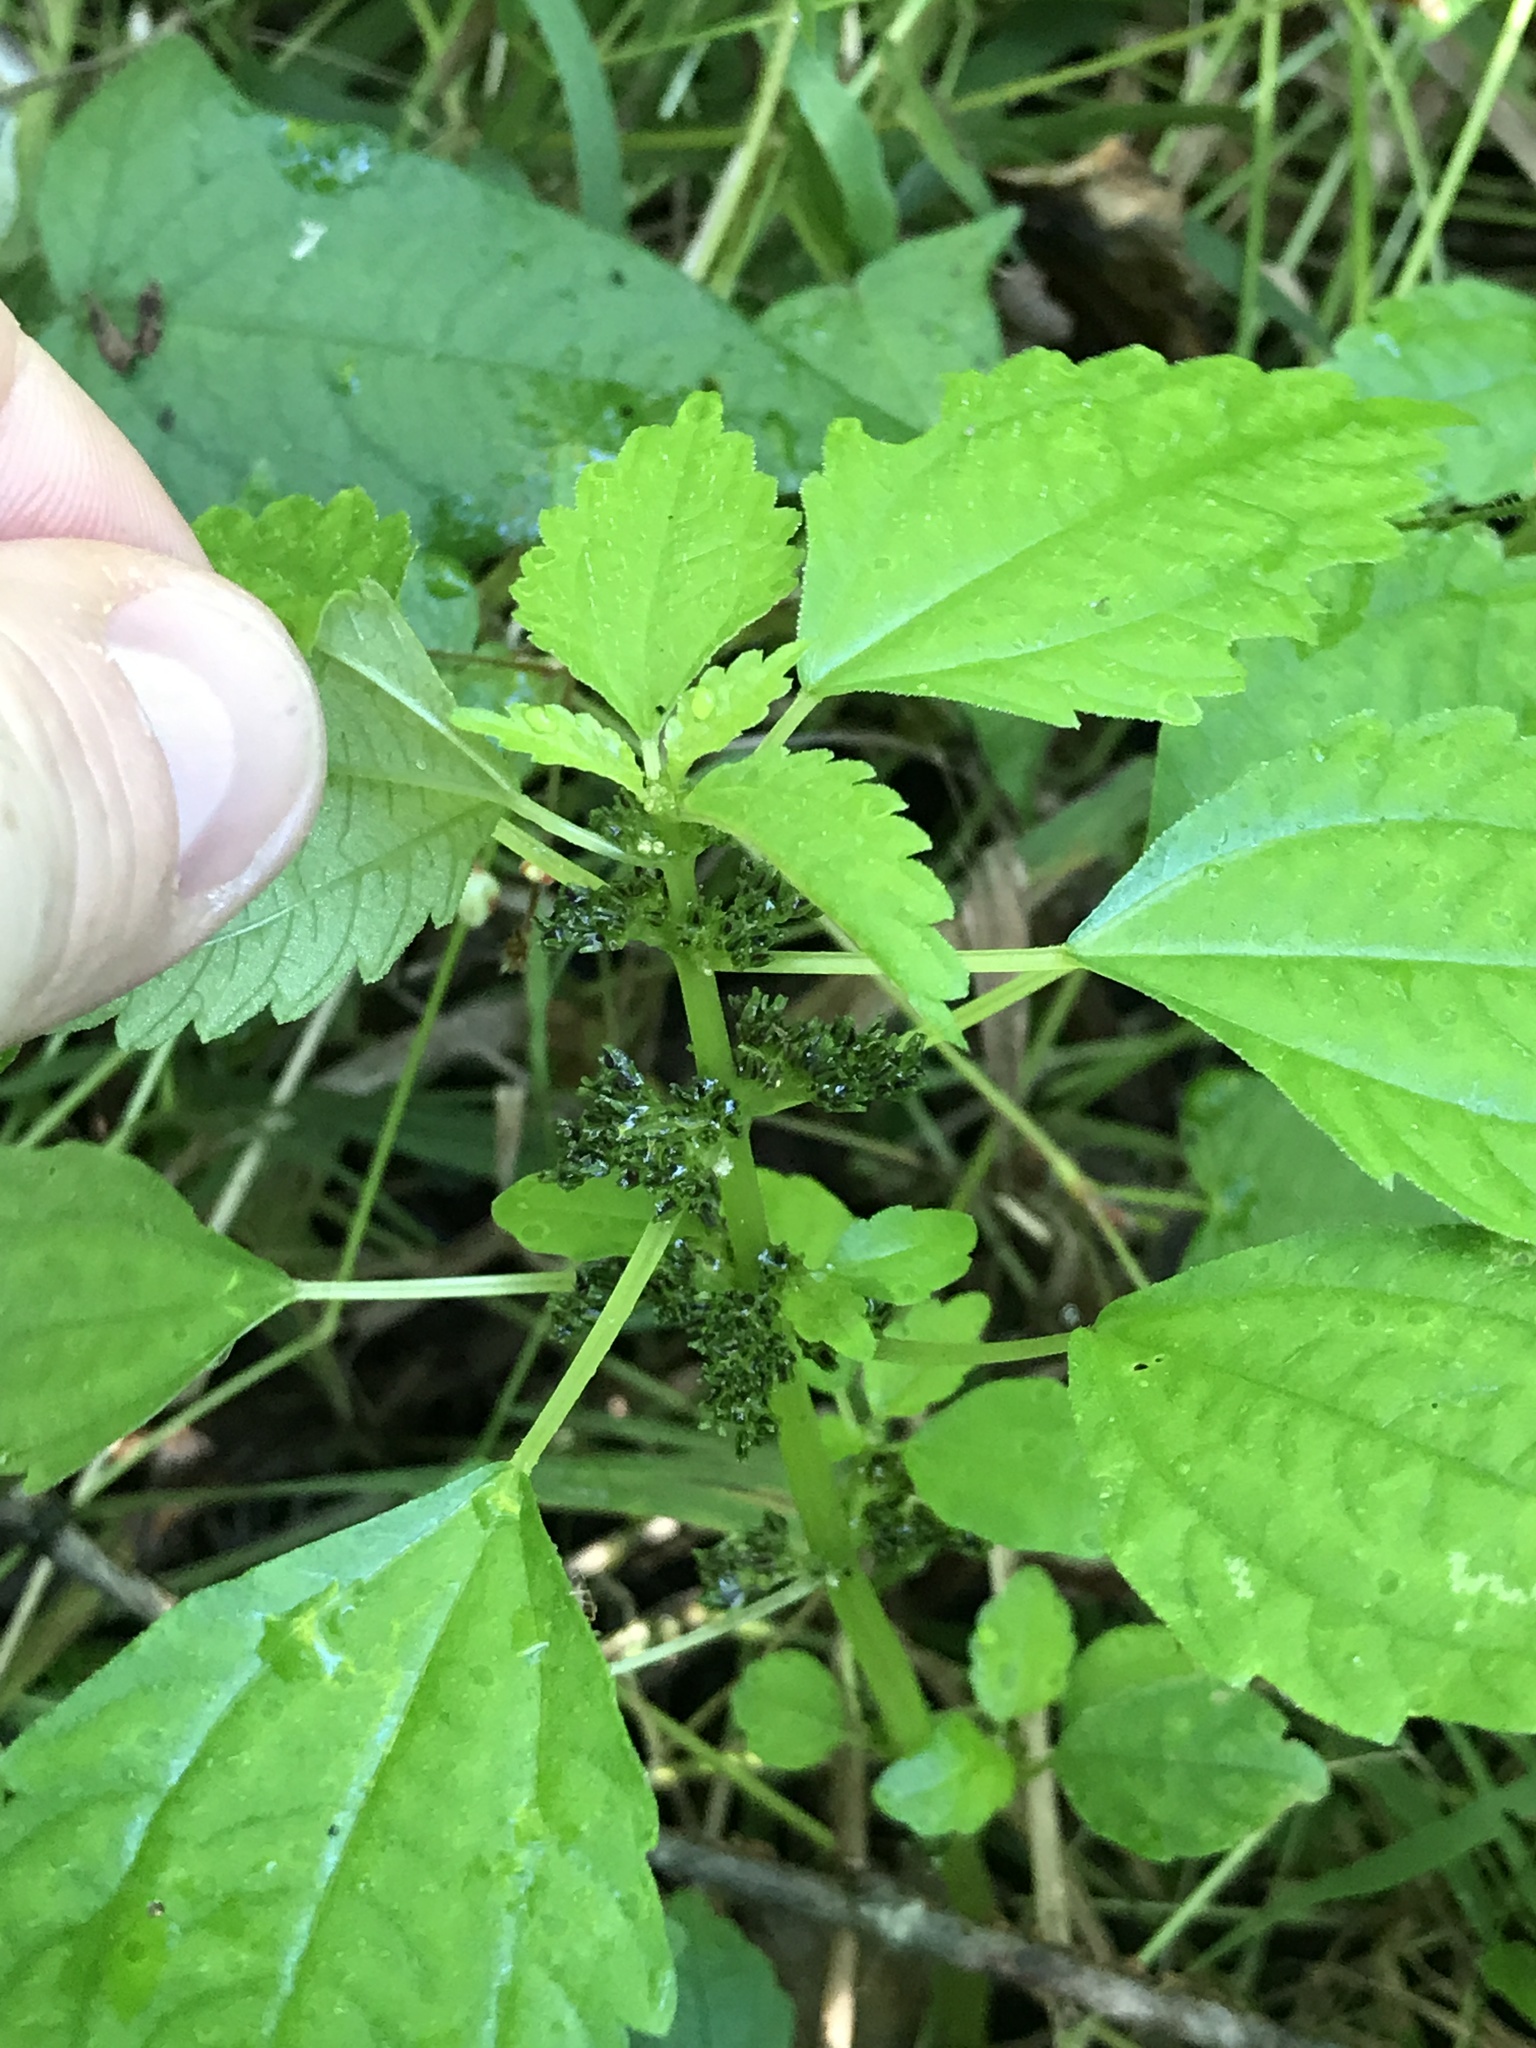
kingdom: Plantae
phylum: Tracheophyta
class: Magnoliopsida
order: Rosales
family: Urticaceae
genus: Pilea
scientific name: Pilea fontana
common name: Clearweed
